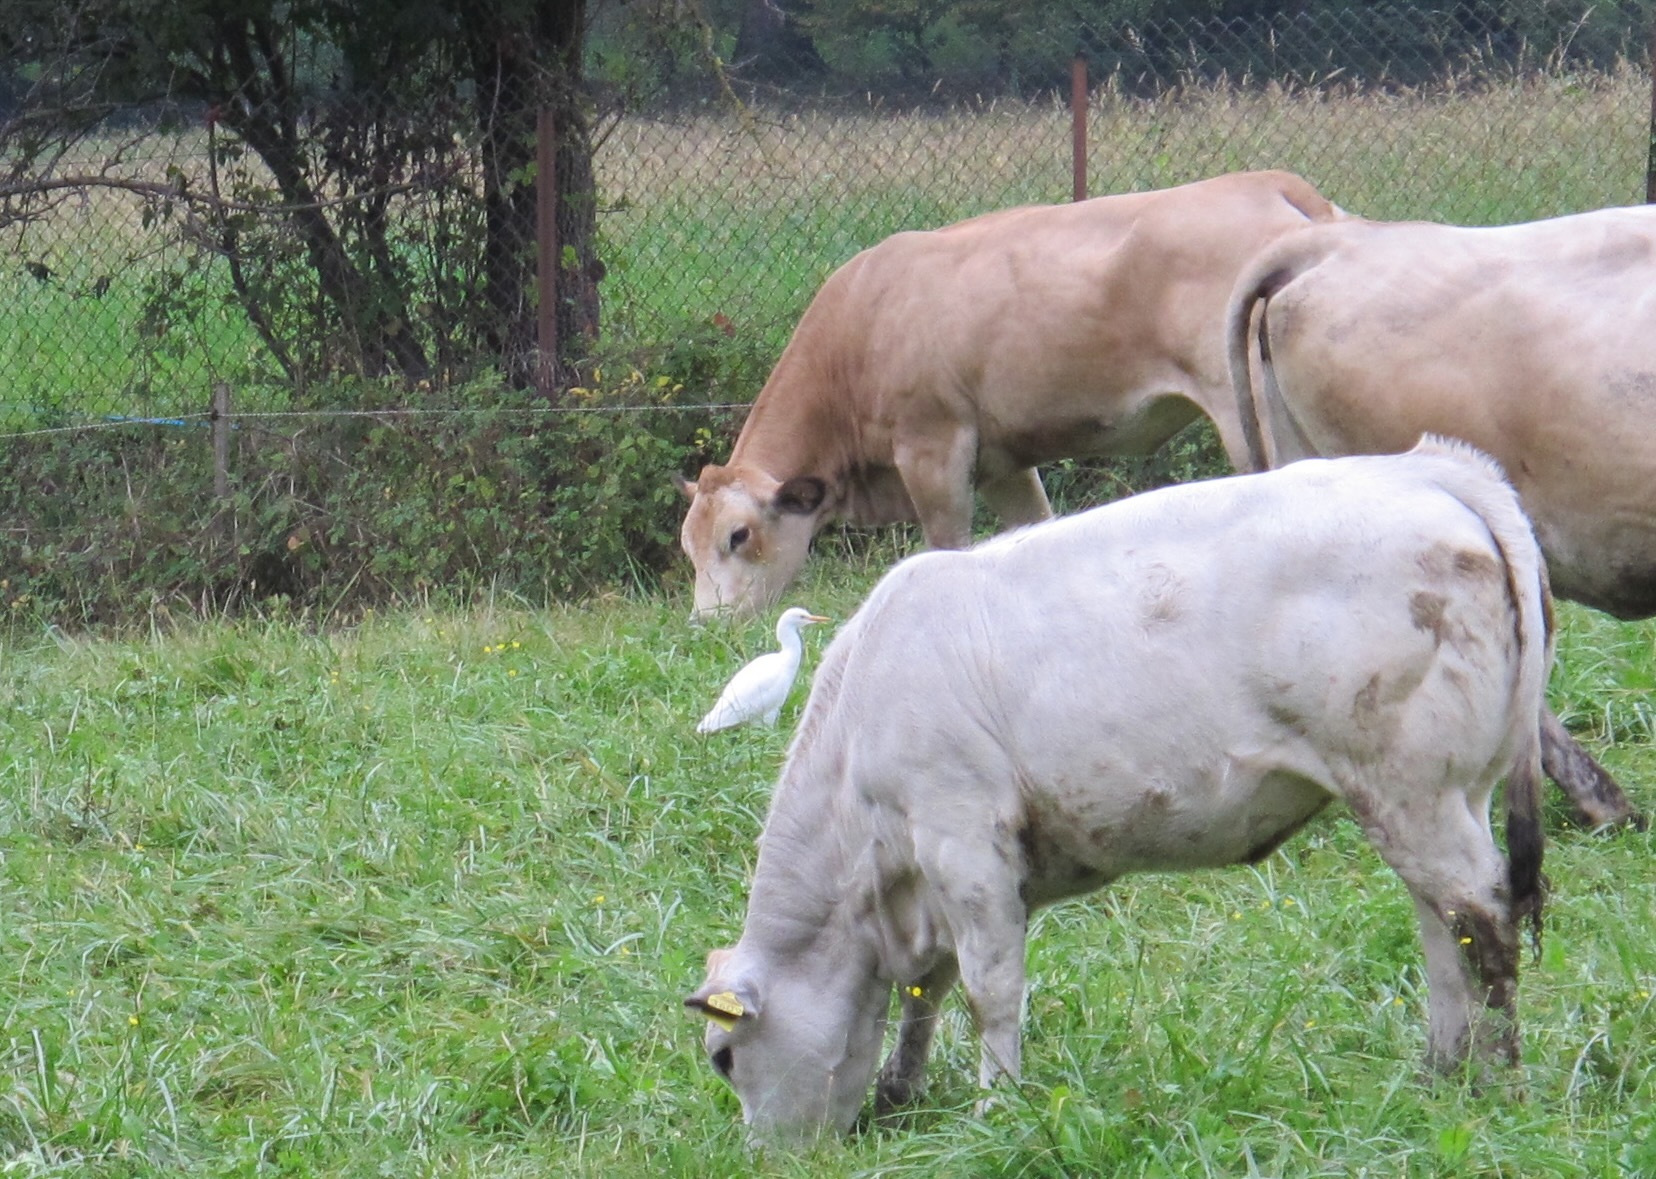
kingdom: Animalia
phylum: Chordata
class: Aves
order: Pelecaniformes
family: Ardeidae
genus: Bubulcus
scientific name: Bubulcus ibis
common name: Cattle egret
